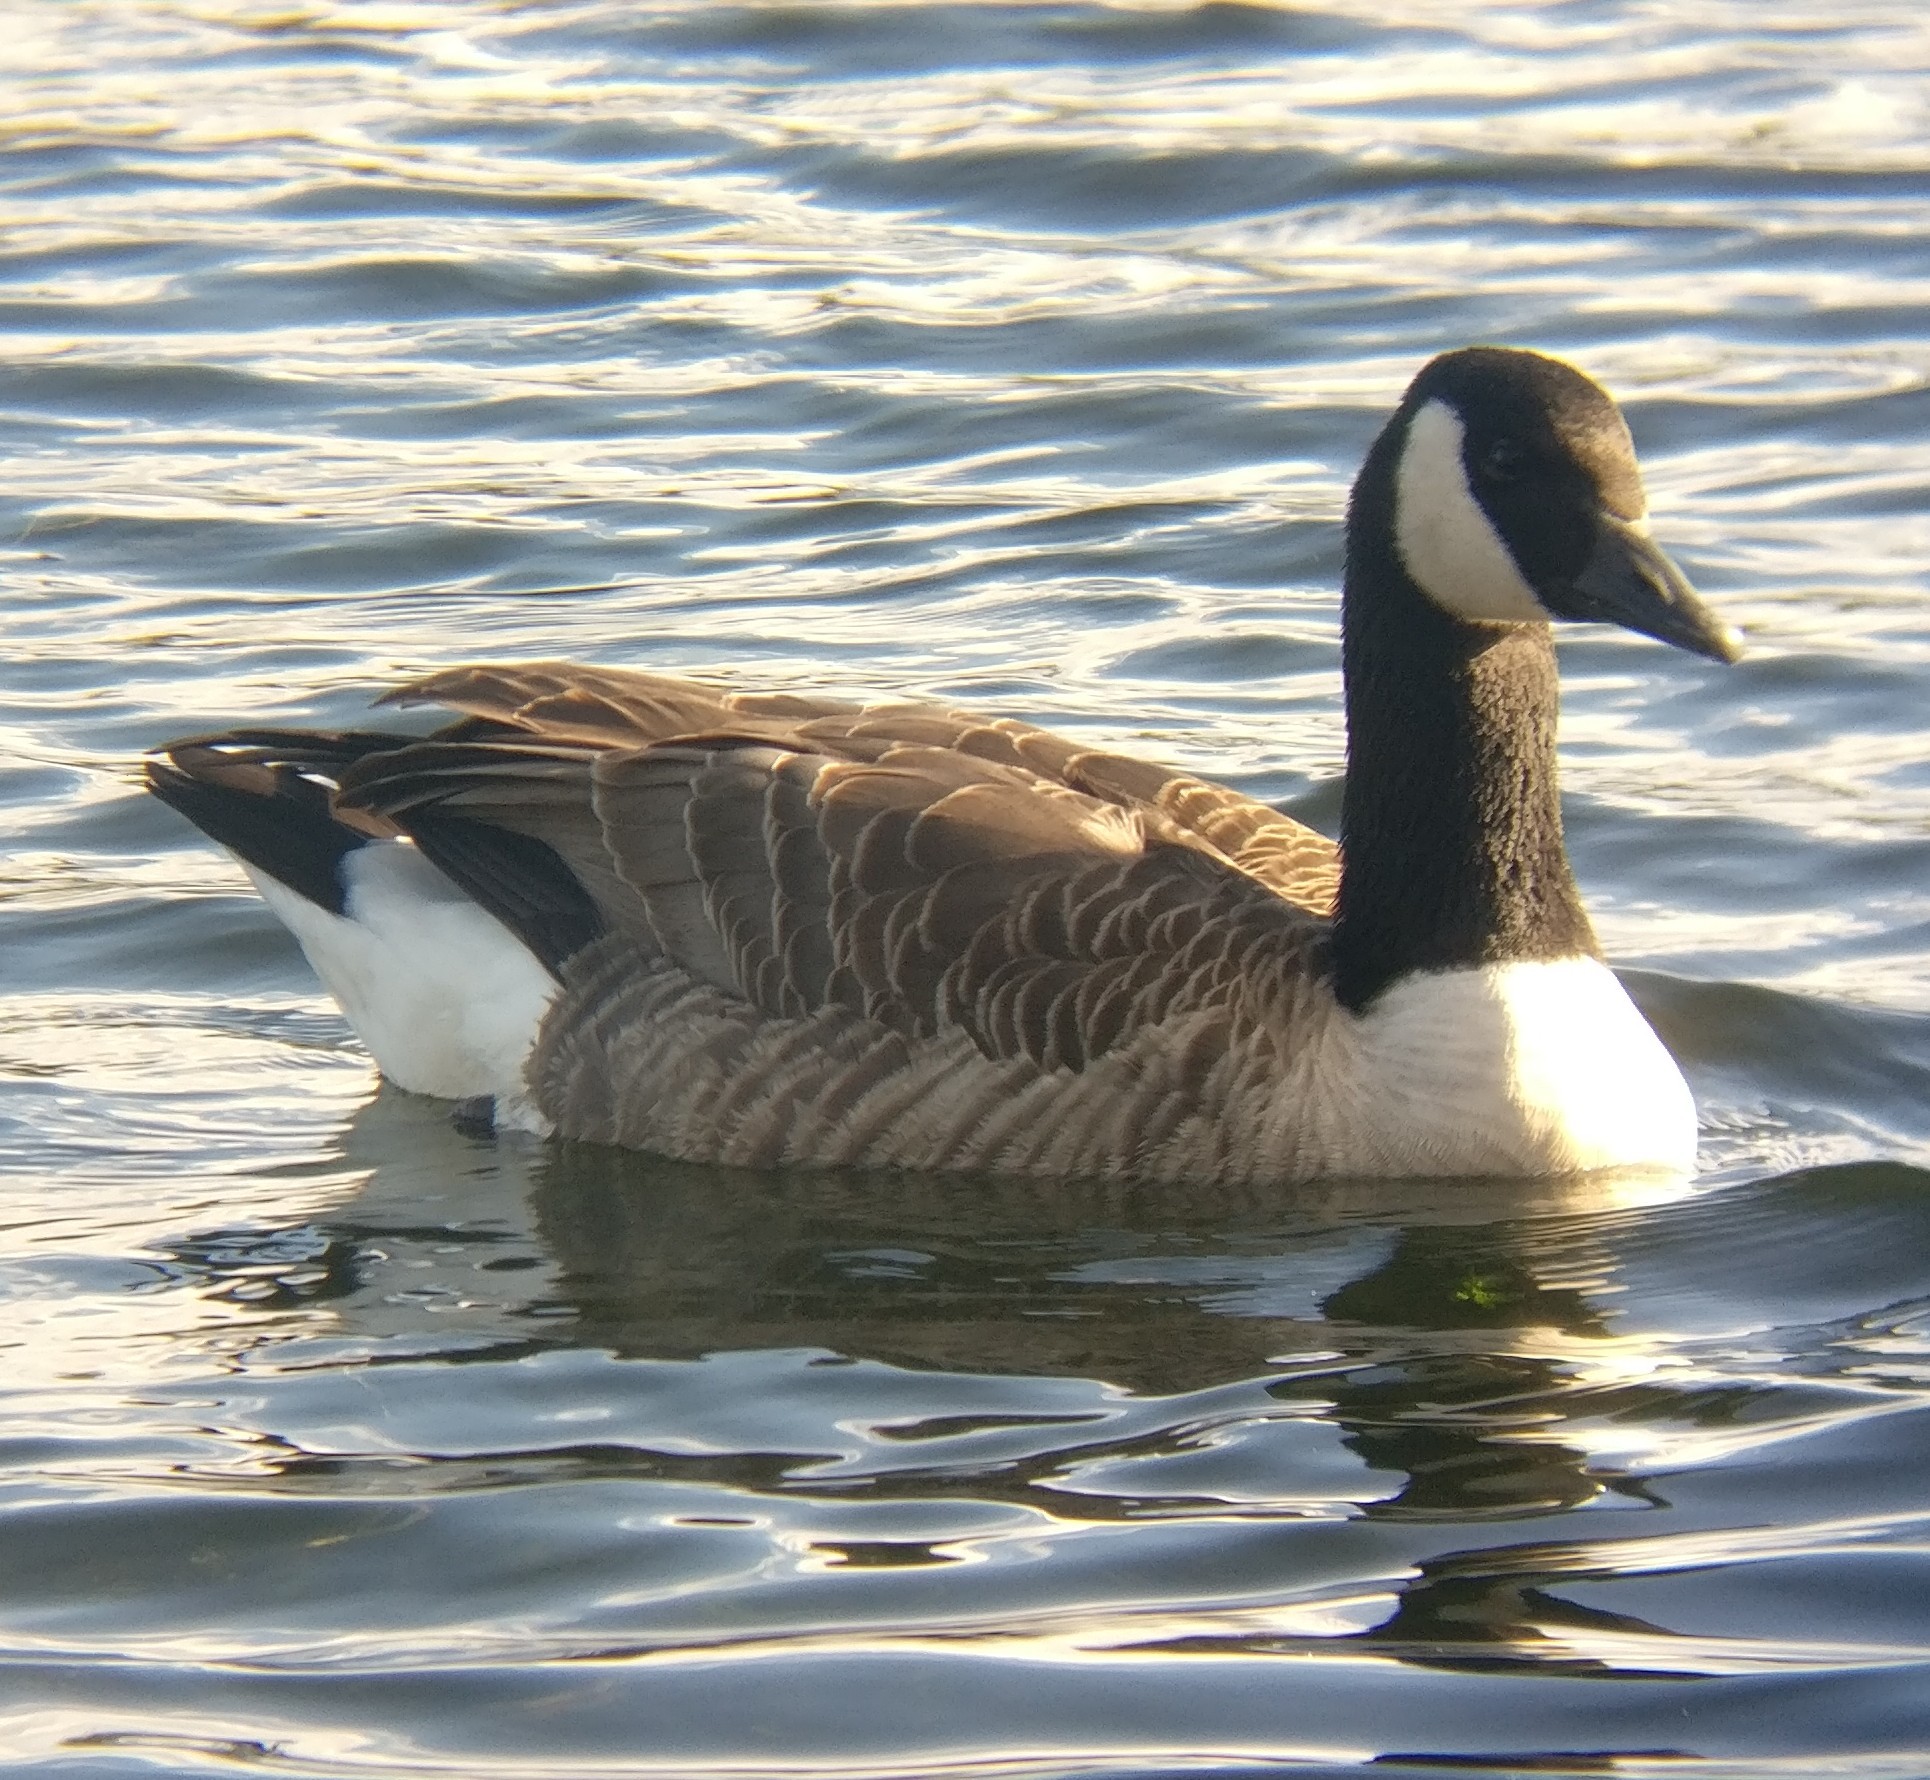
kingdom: Animalia
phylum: Chordata
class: Aves
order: Anseriformes
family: Anatidae
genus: Branta
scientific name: Branta canadensis
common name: Canada goose
